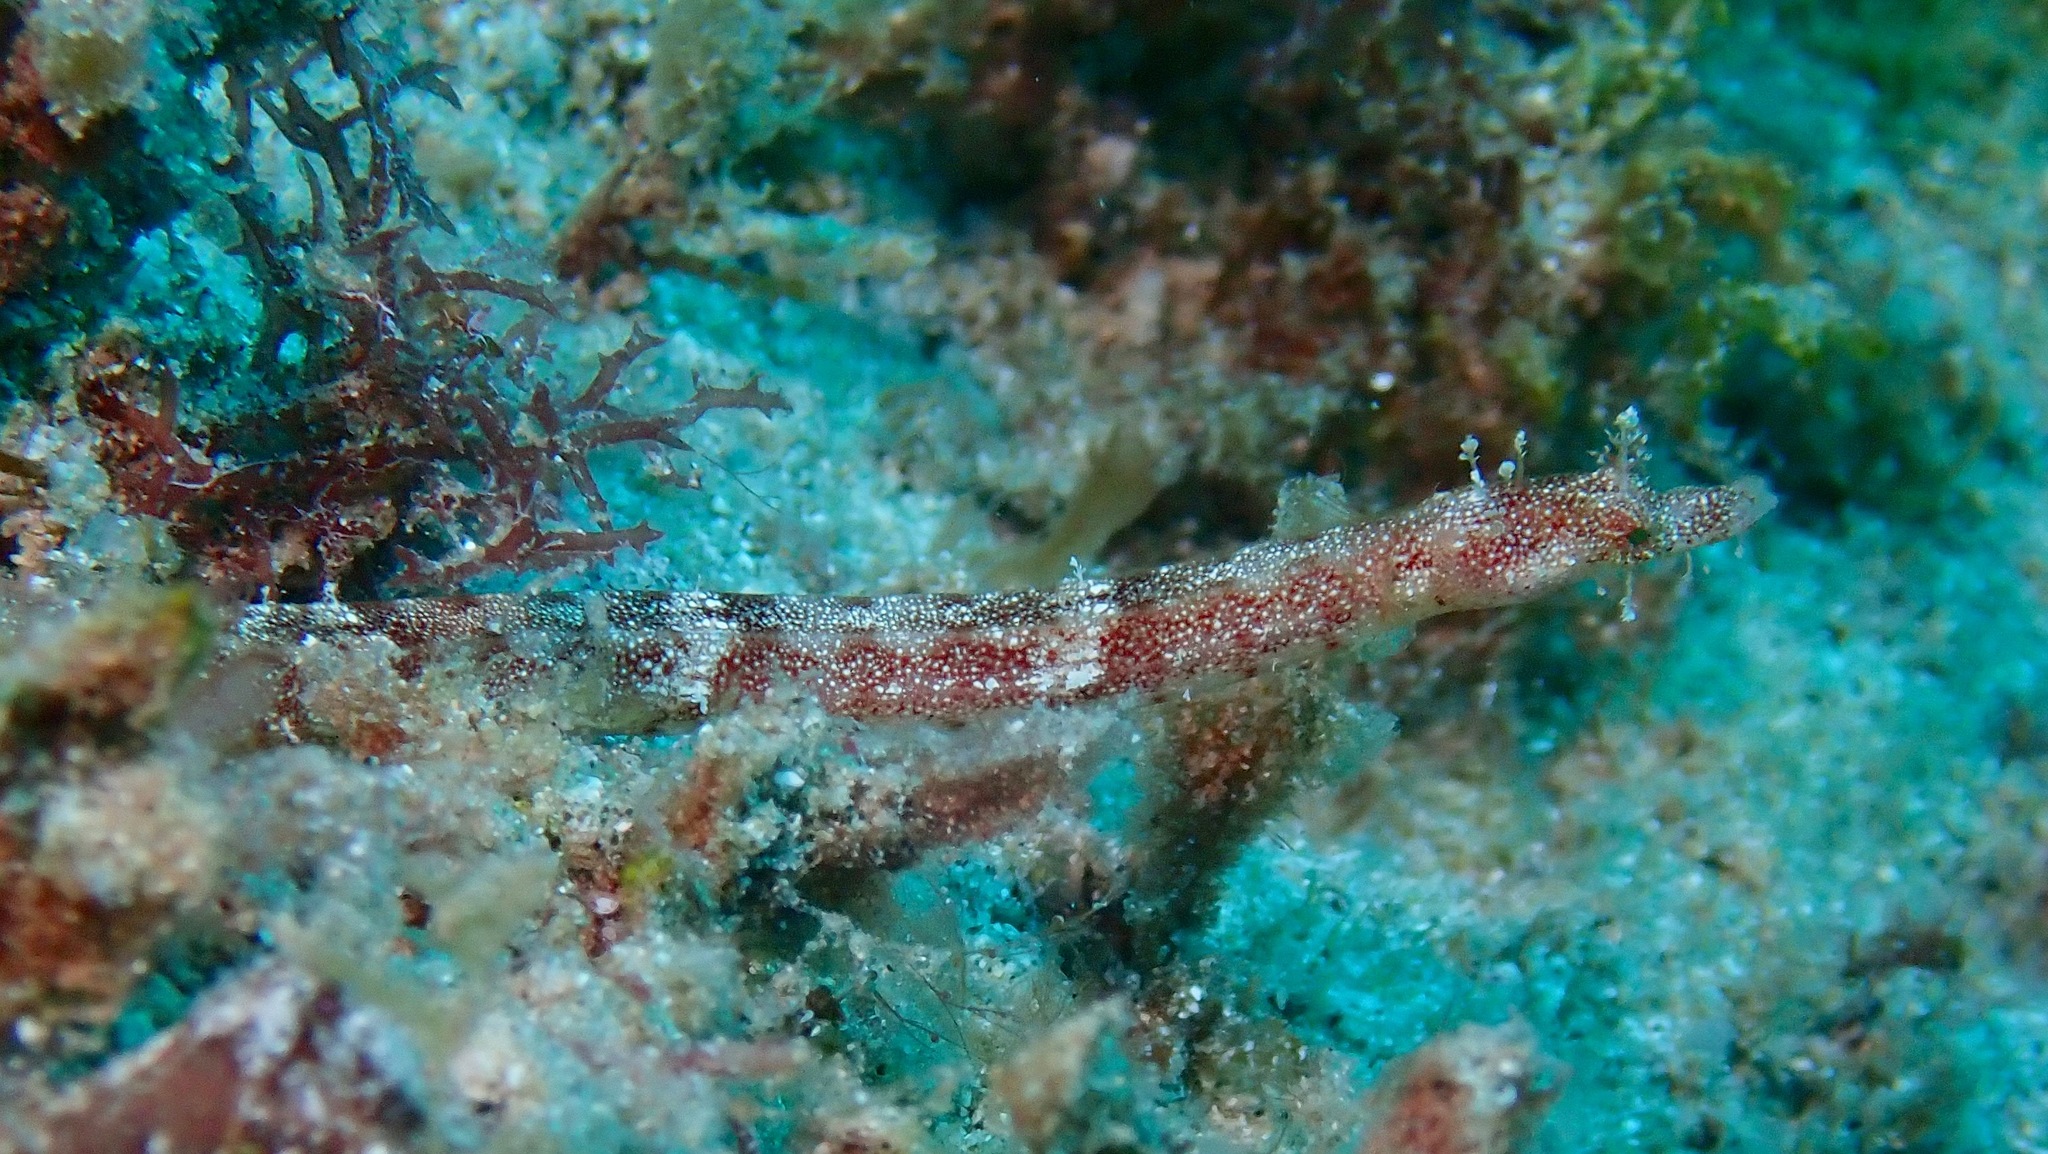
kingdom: Animalia
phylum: Chordata
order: Syngnathiformes
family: Syngnathidae
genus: Halicampus
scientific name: Halicampus boothae
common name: Booth's pipefish
